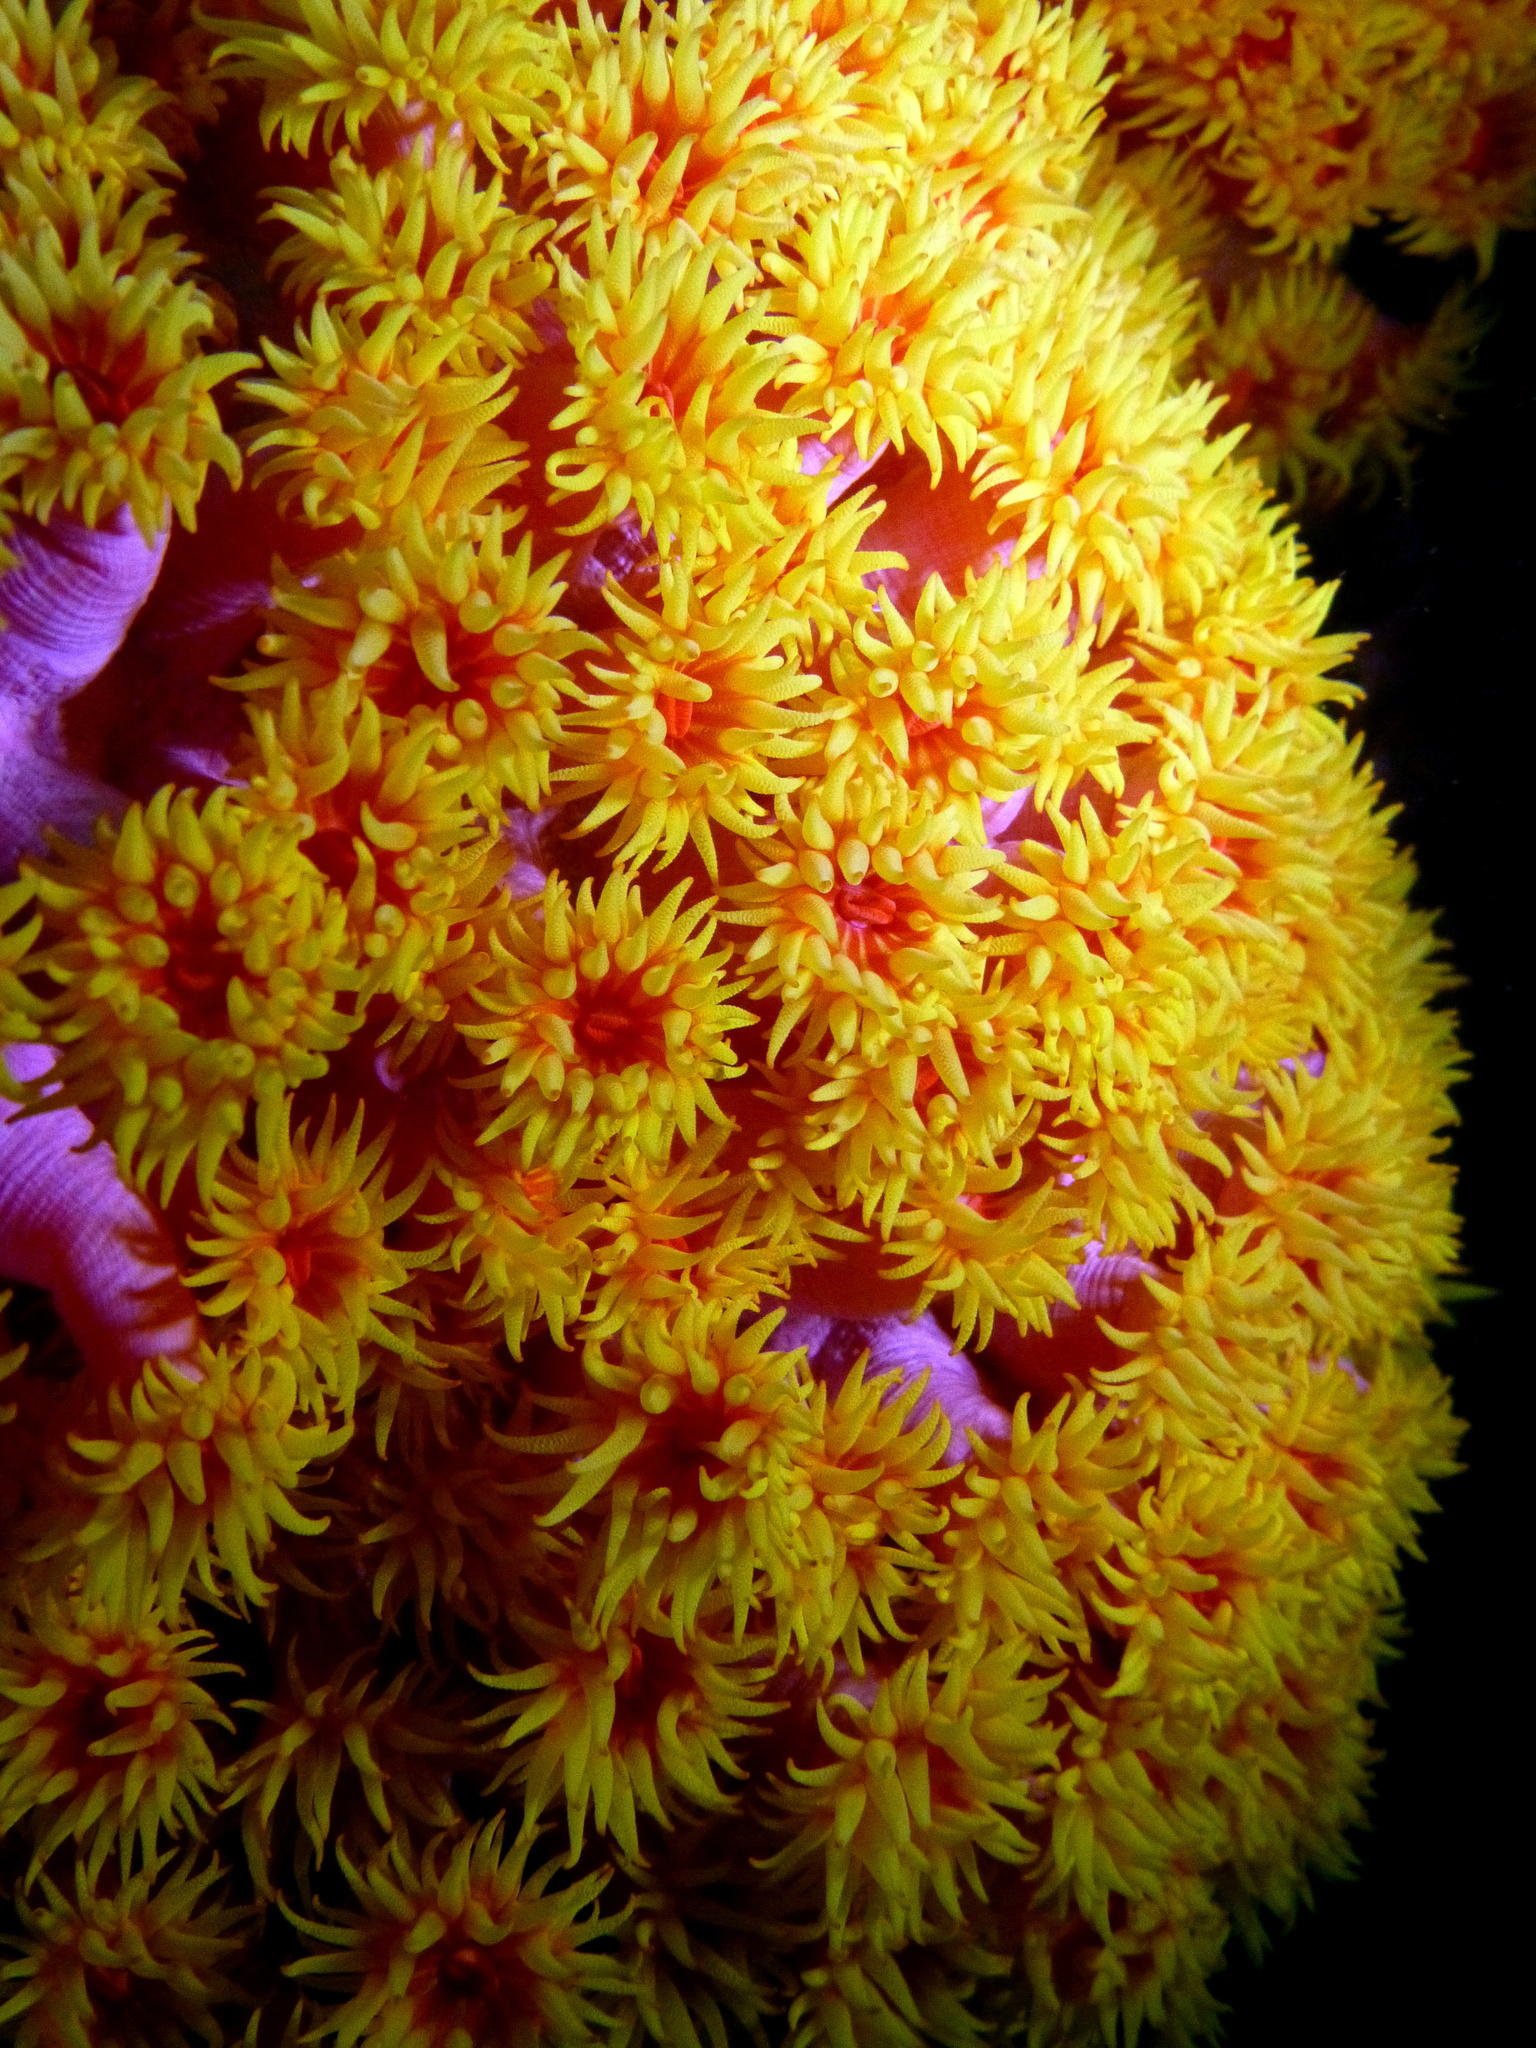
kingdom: Animalia
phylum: Cnidaria
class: Anthozoa
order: Scleractinia
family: Dendrophylliidae
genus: Tubastraea
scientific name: Tubastraea coccinea
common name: Orange cup coral
